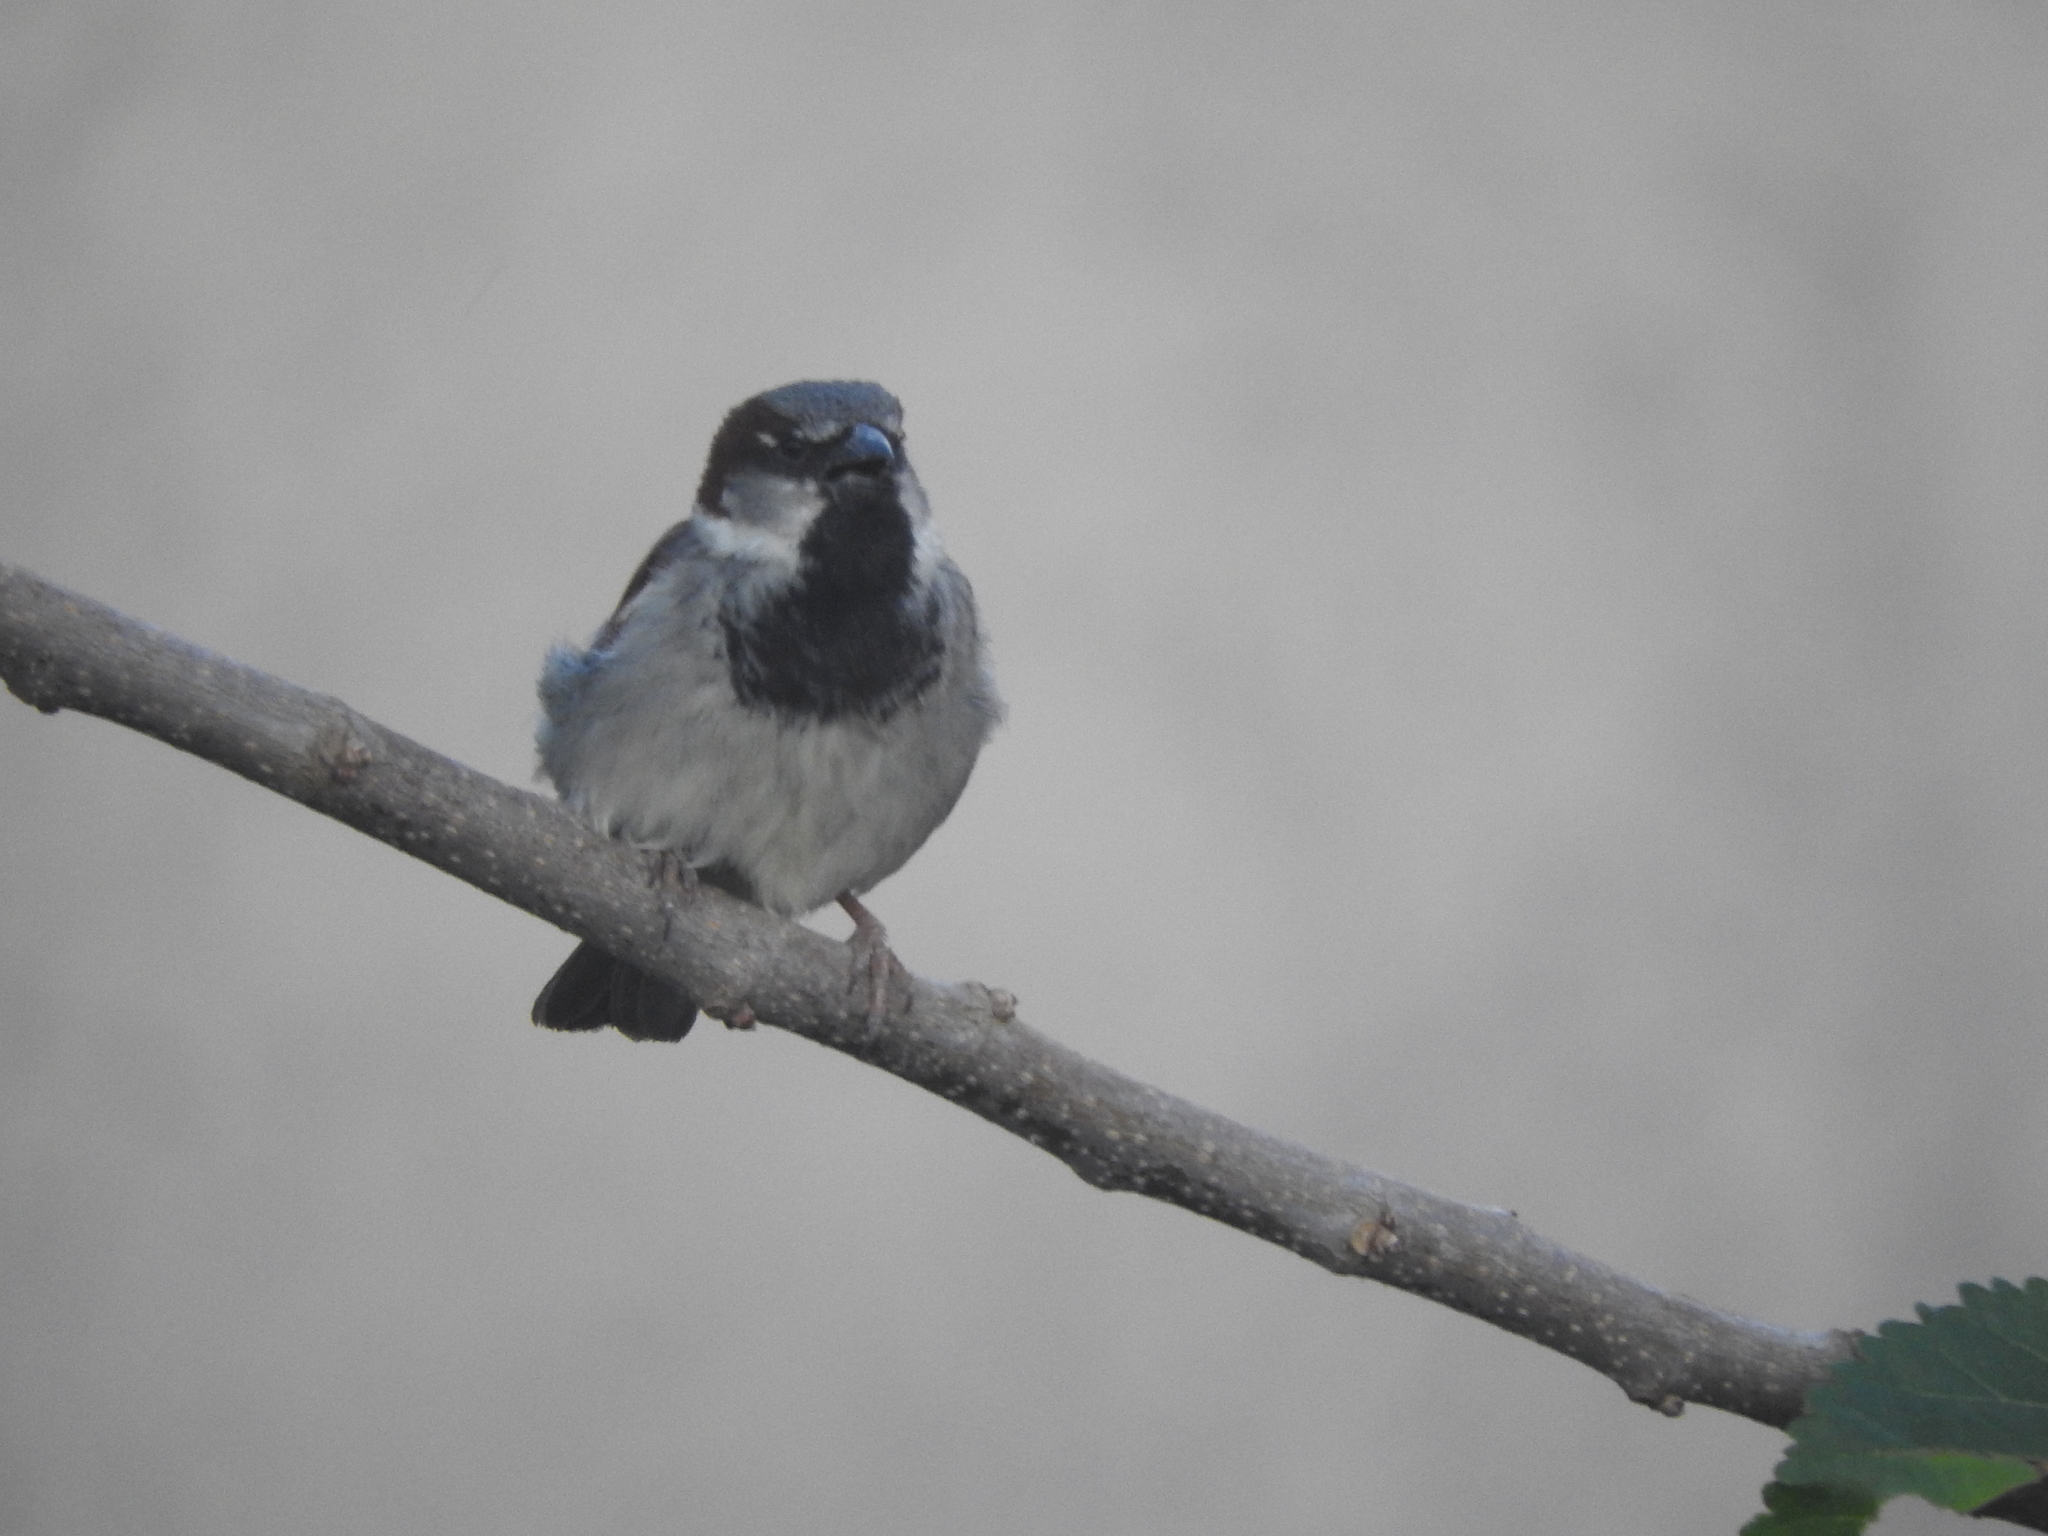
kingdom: Animalia
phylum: Chordata
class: Aves
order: Passeriformes
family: Passeridae
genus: Passer
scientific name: Passer domesticus
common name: House sparrow
